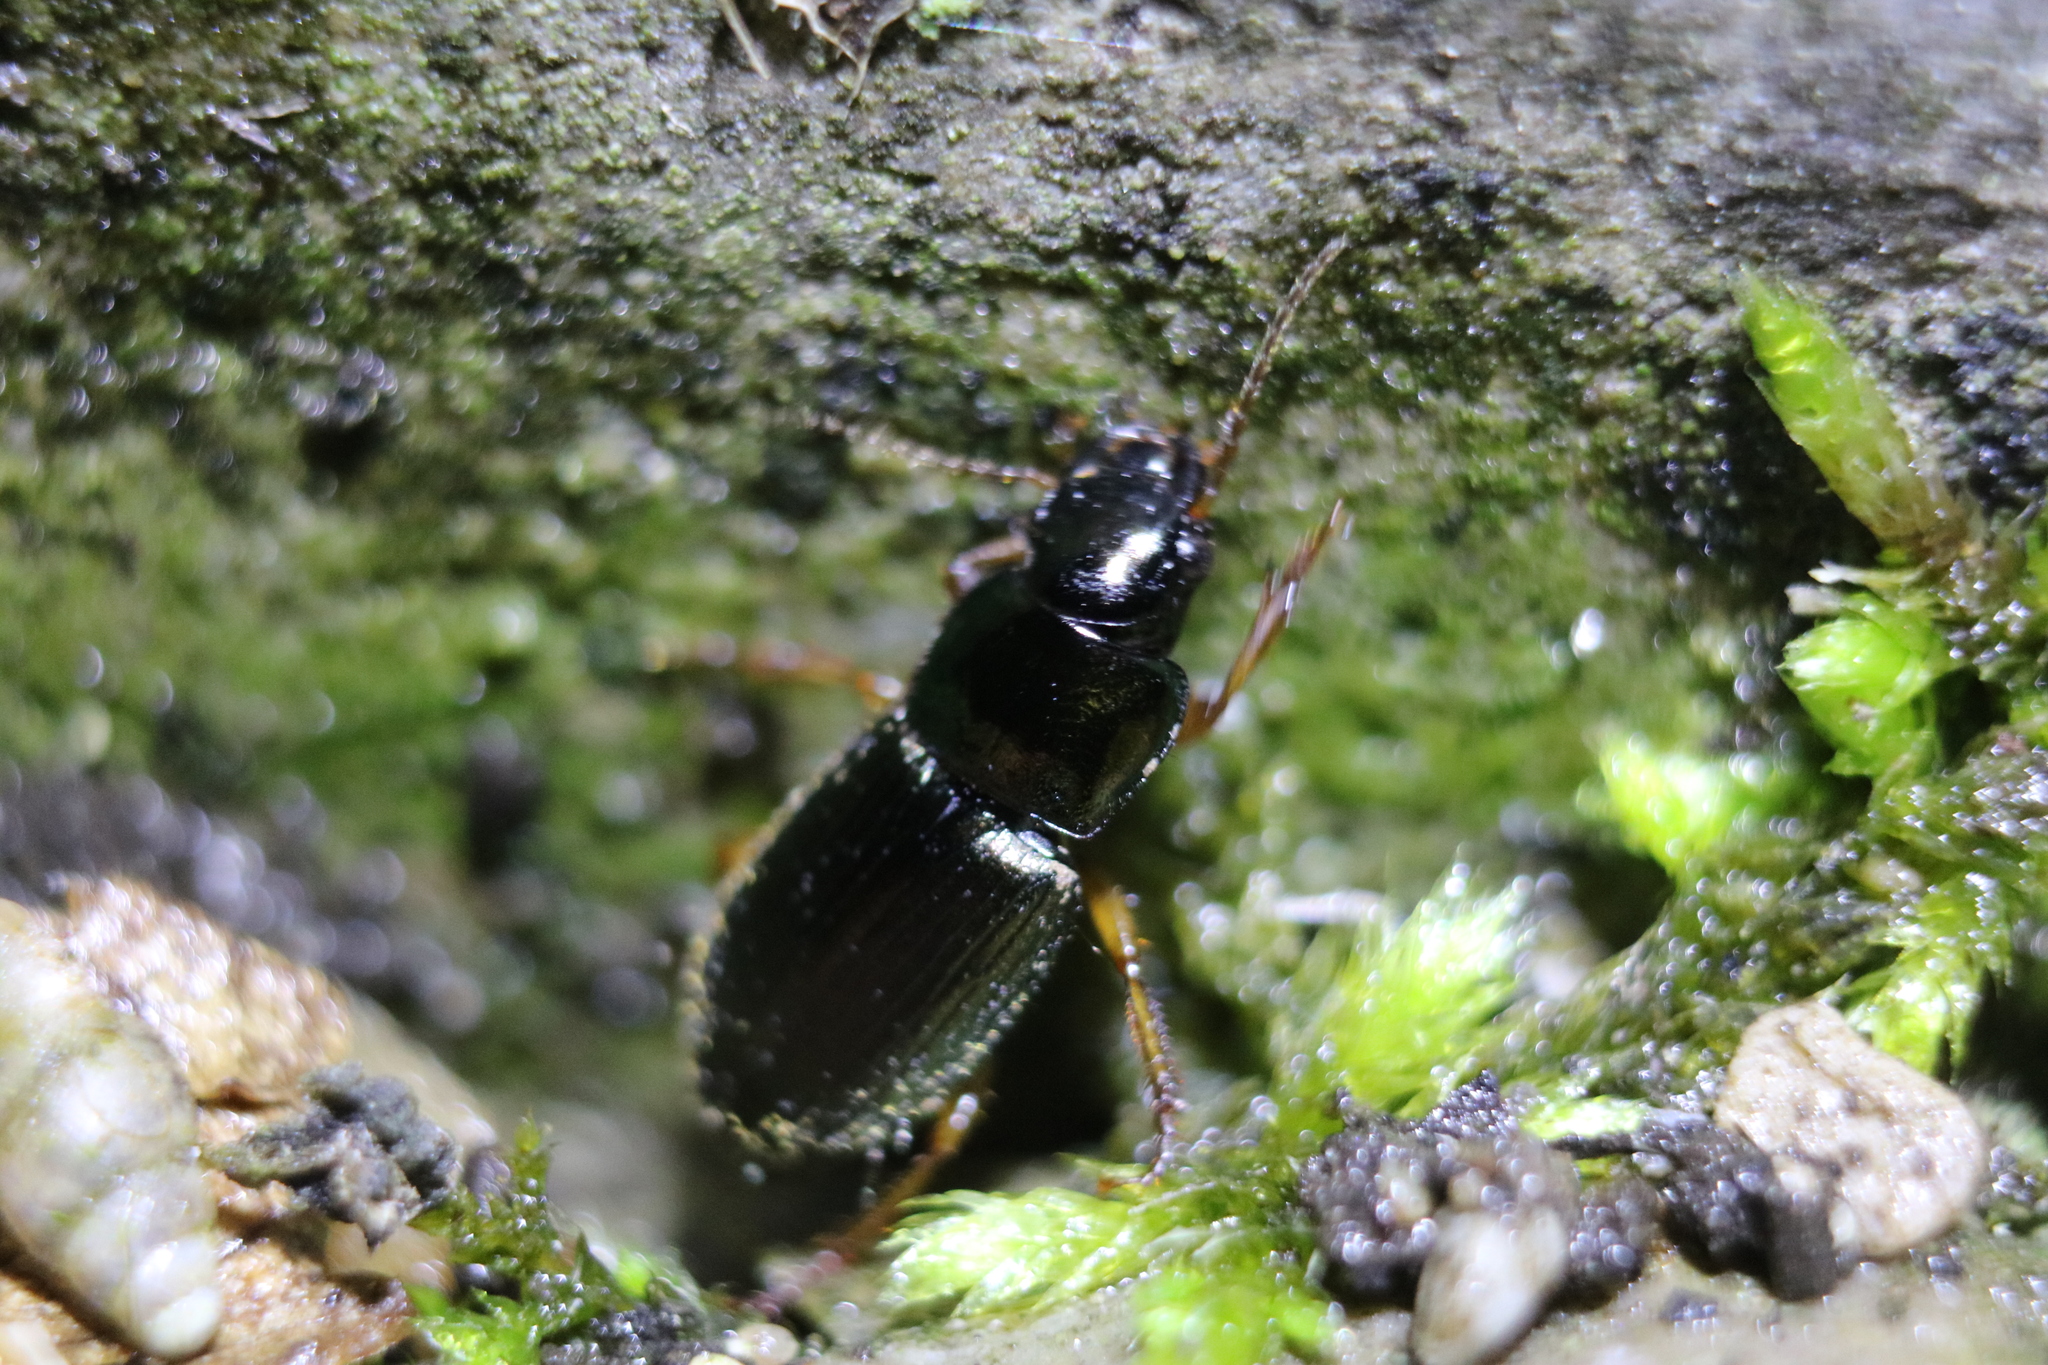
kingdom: Animalia
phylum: Arthropoda
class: Insecta
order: Coleoptera
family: Carabidae
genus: Harpalus
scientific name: Harpalus affinis
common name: Polychrome harp ground beetle
